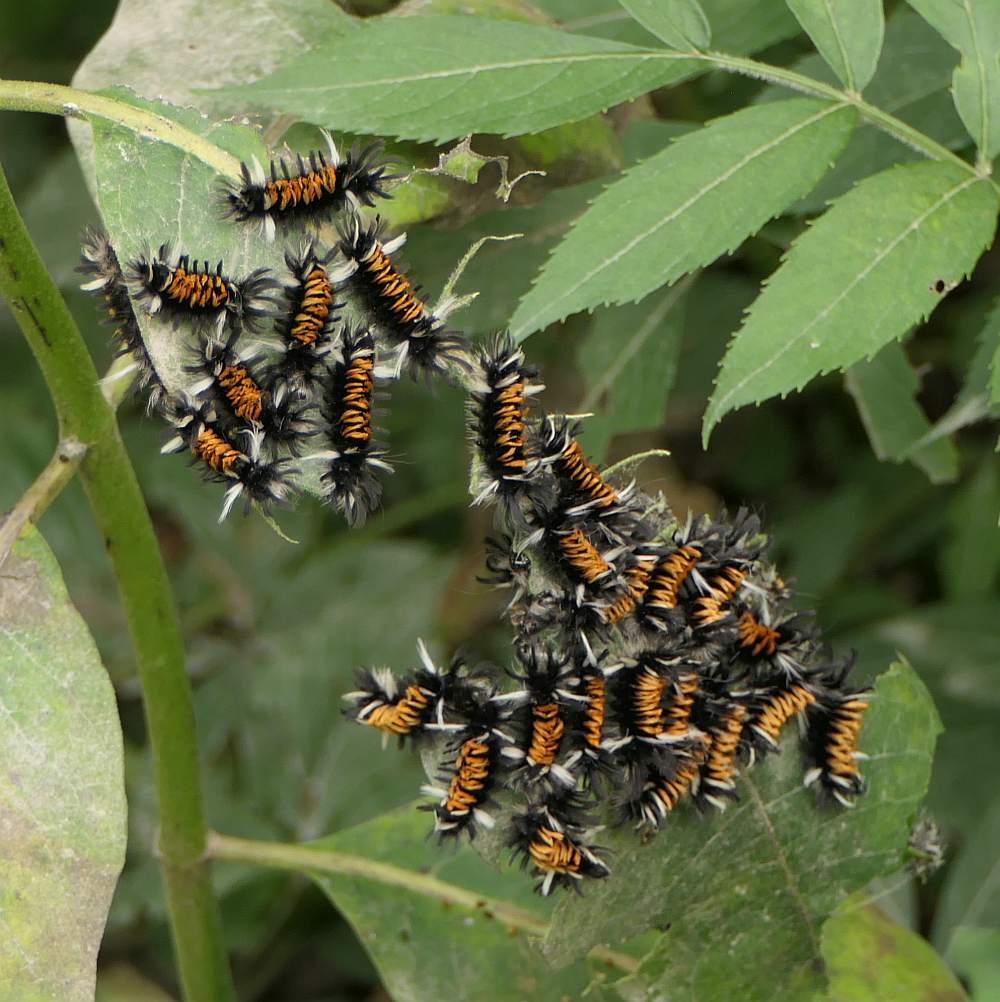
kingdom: Animalia
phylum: Arthropoda
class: Insecta
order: Lepidoptera
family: Erebidae
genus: Euchaetes
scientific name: Euchaetes egle
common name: Milkweed tussock moth
